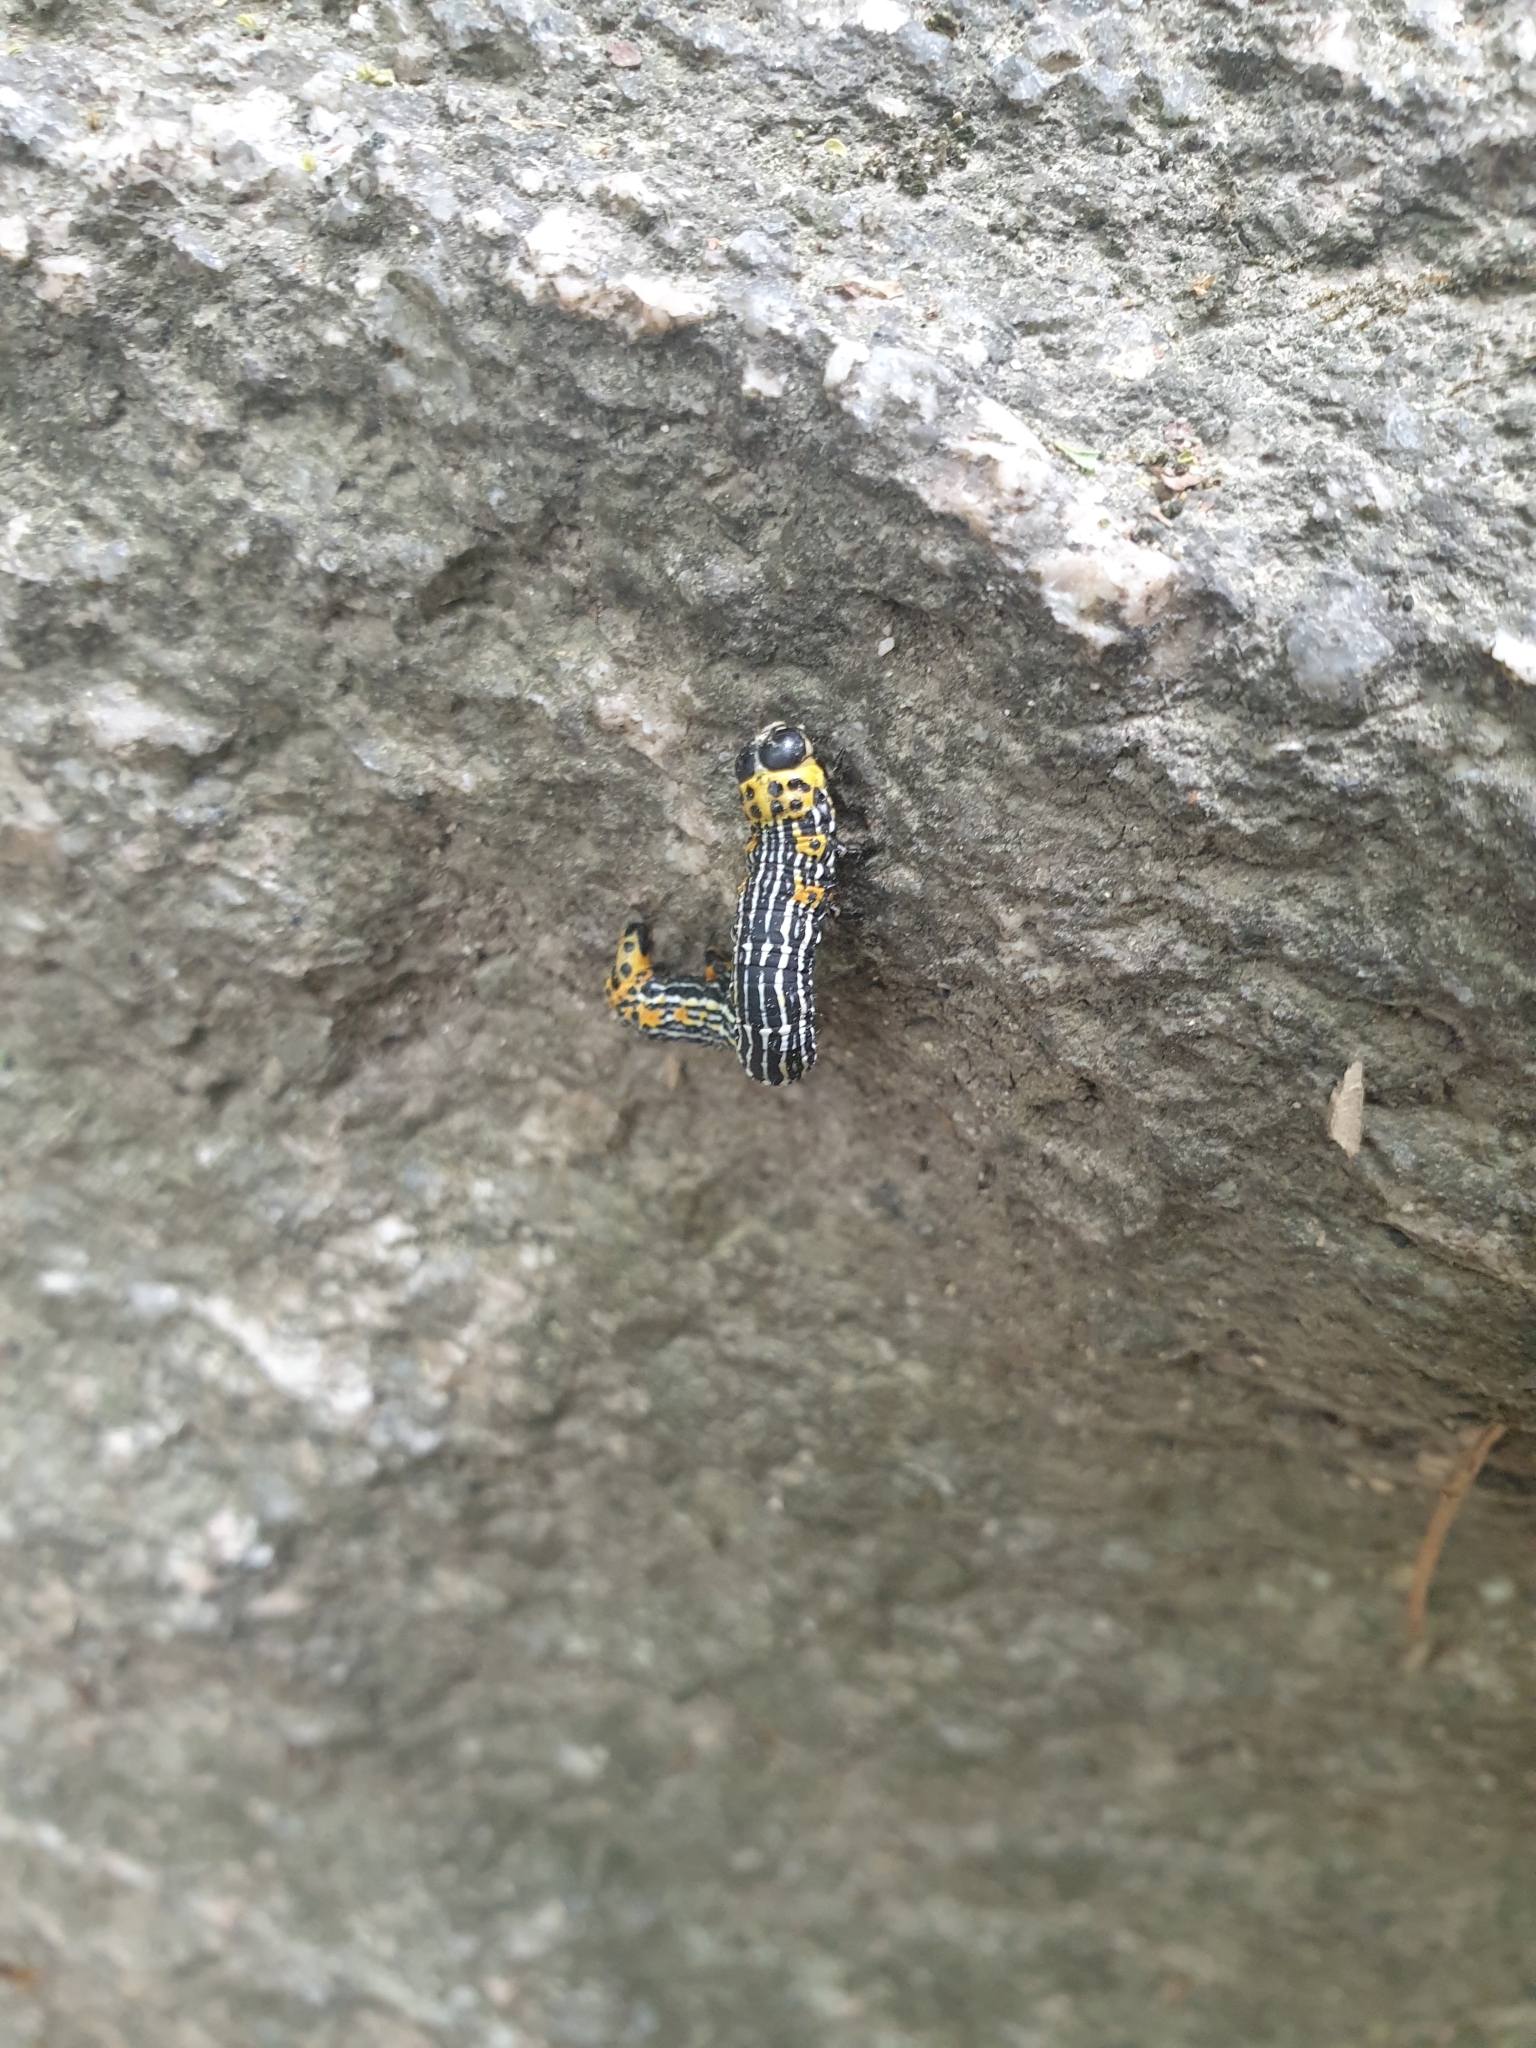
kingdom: Animalia
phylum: Arthropoda
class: Insecta
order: Lepidoptera
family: Geometridae
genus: Acrodontis
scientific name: Acrodontis kotshubeji
